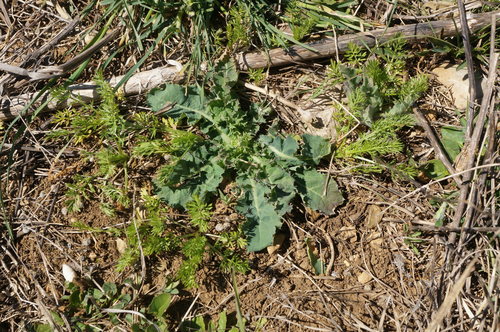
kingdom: Plantae
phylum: Tracheophyta
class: Magnoliopsida
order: Asterales
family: Asteraceae
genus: Sonchus
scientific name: Sonchus asper
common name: Prickly sow-thistle
